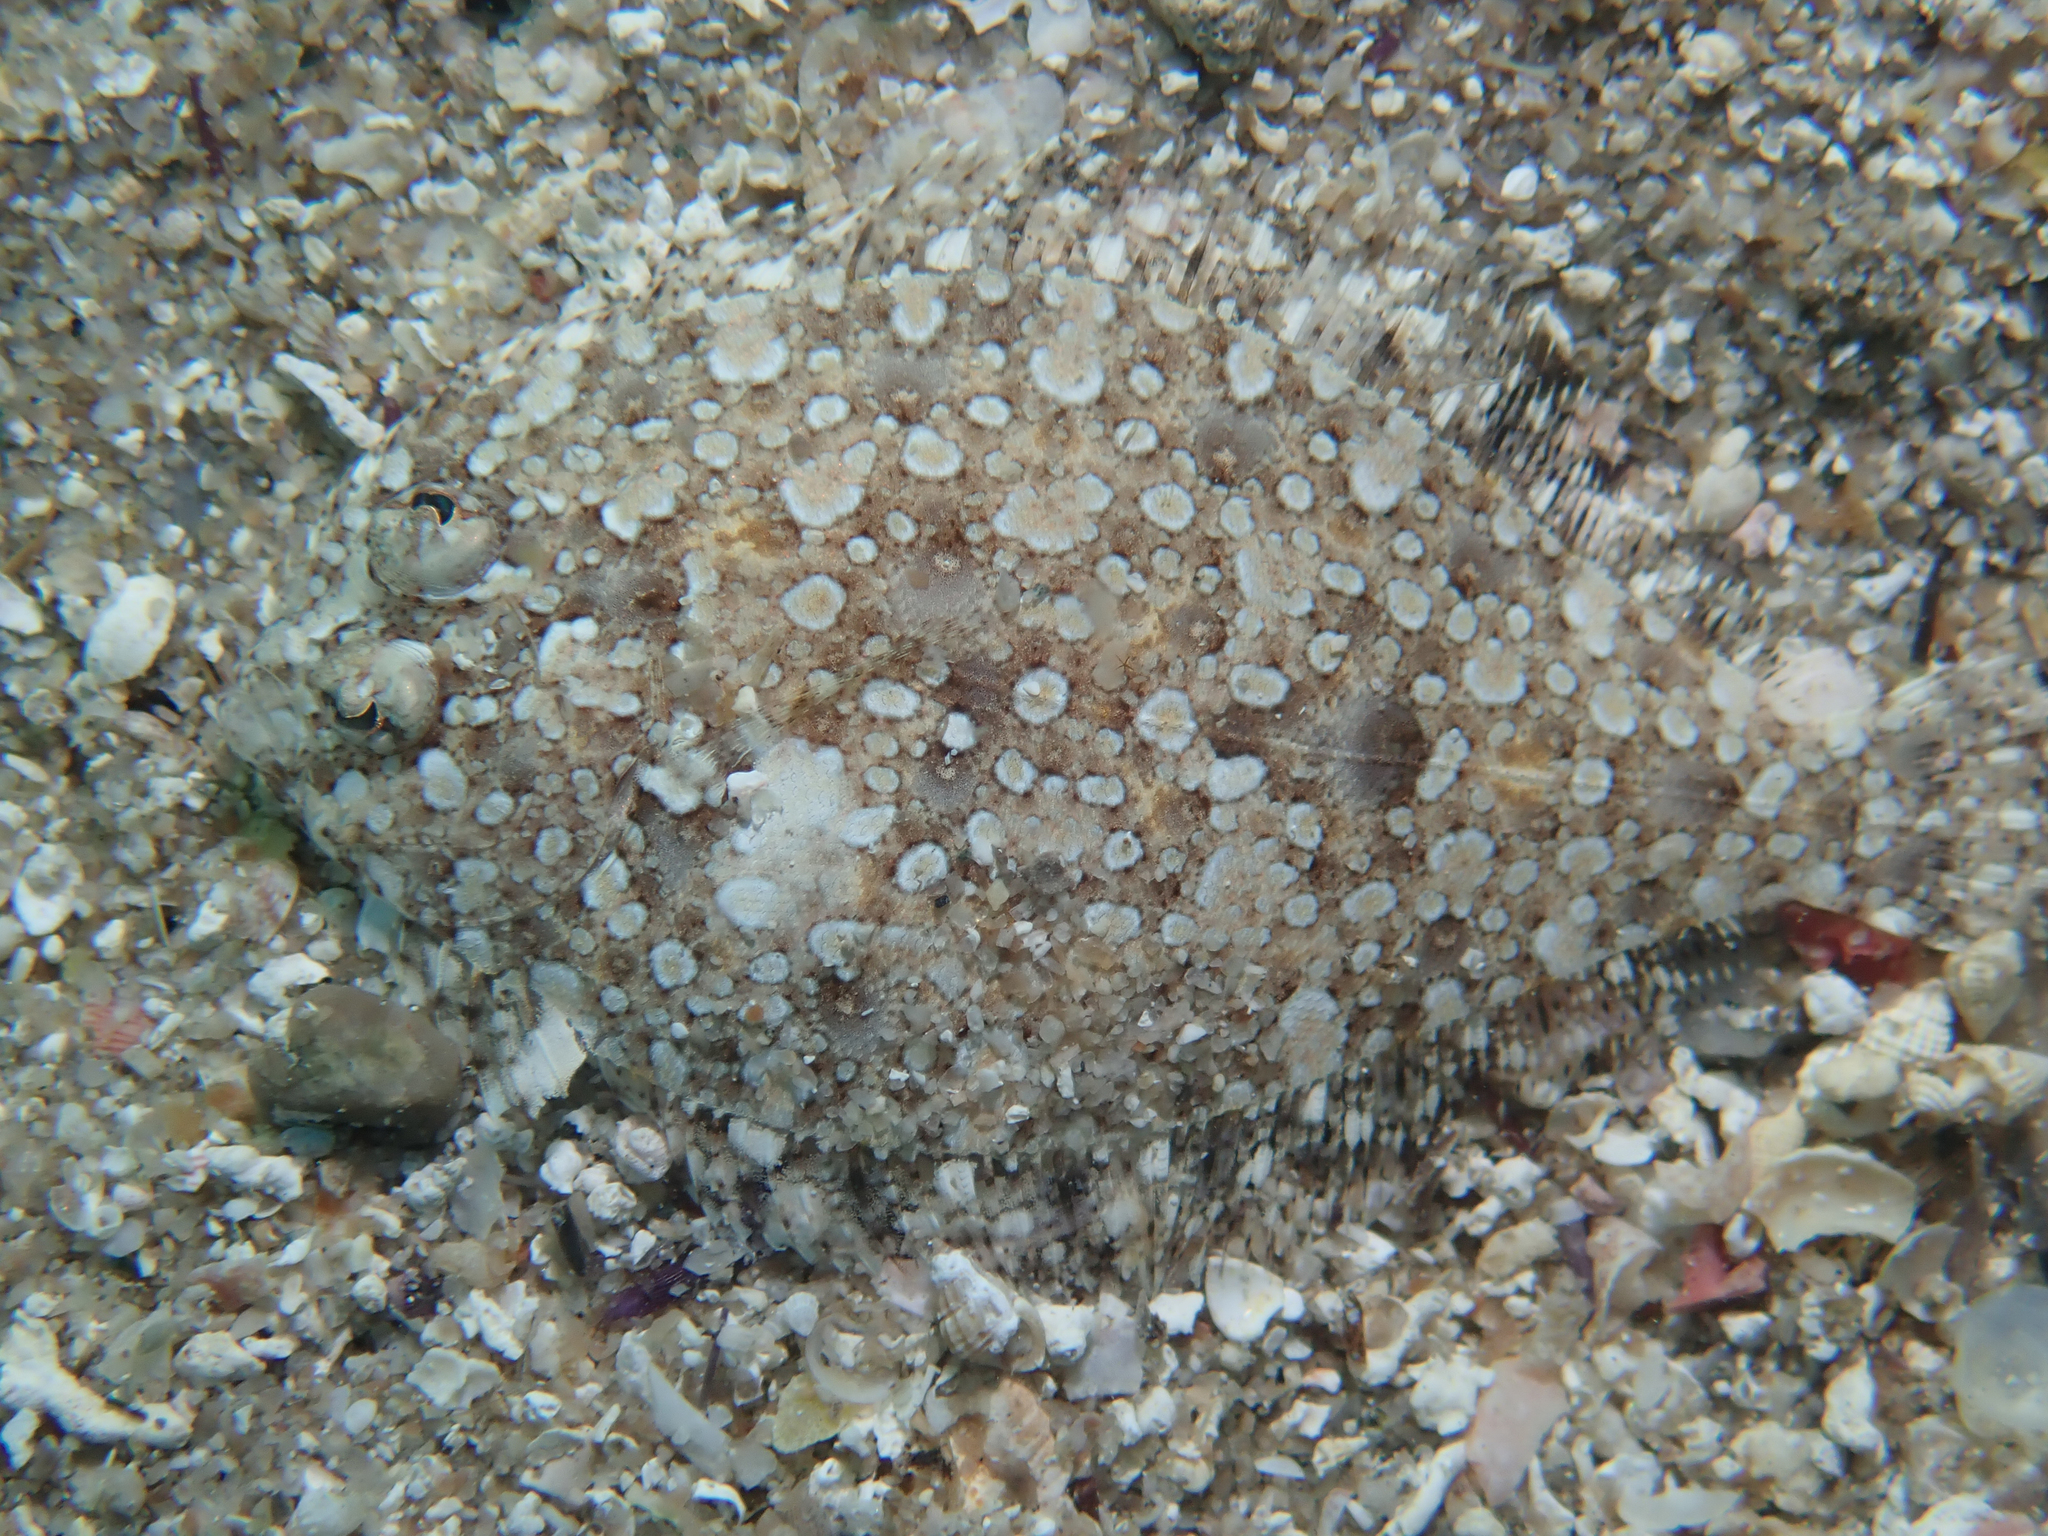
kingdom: Animalia
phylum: Chordata
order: Pleuronectiformes
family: Bothidae
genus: Bothus
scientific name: Bothus podas
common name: Wide-eyed flounder
